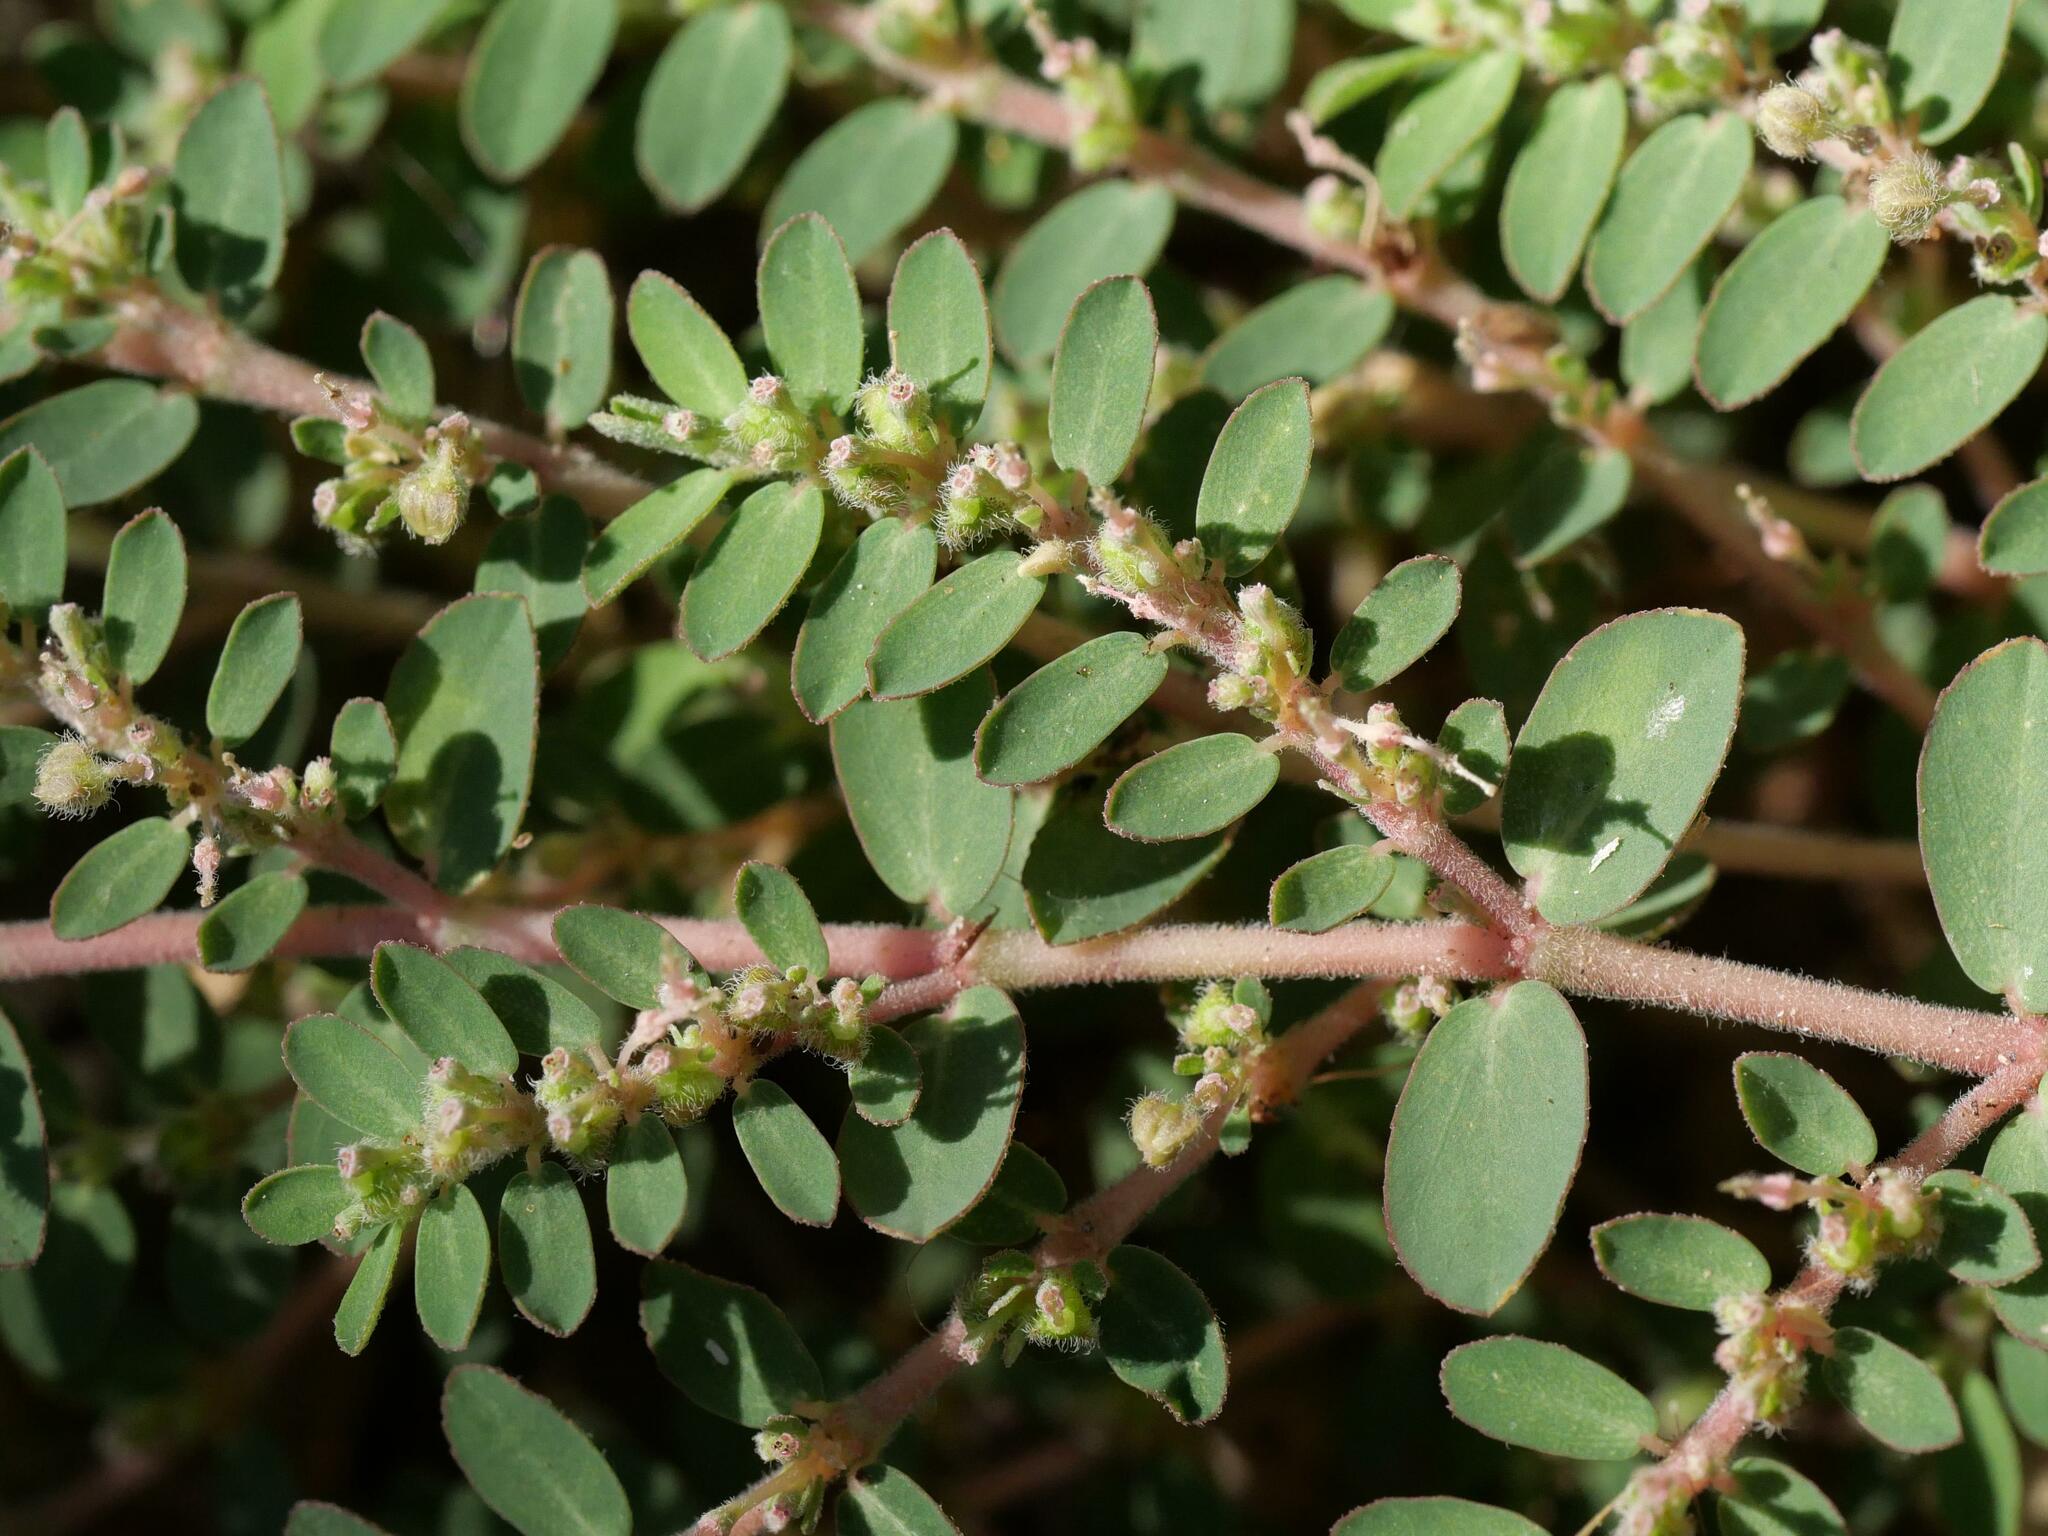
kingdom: Plantae
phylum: Tracheophyta
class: Magnoliopsida
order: Malpighiales
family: Euphorbiaceae
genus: Euphorbia
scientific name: Euphorbia prostrata
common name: Prostrate sandmat
